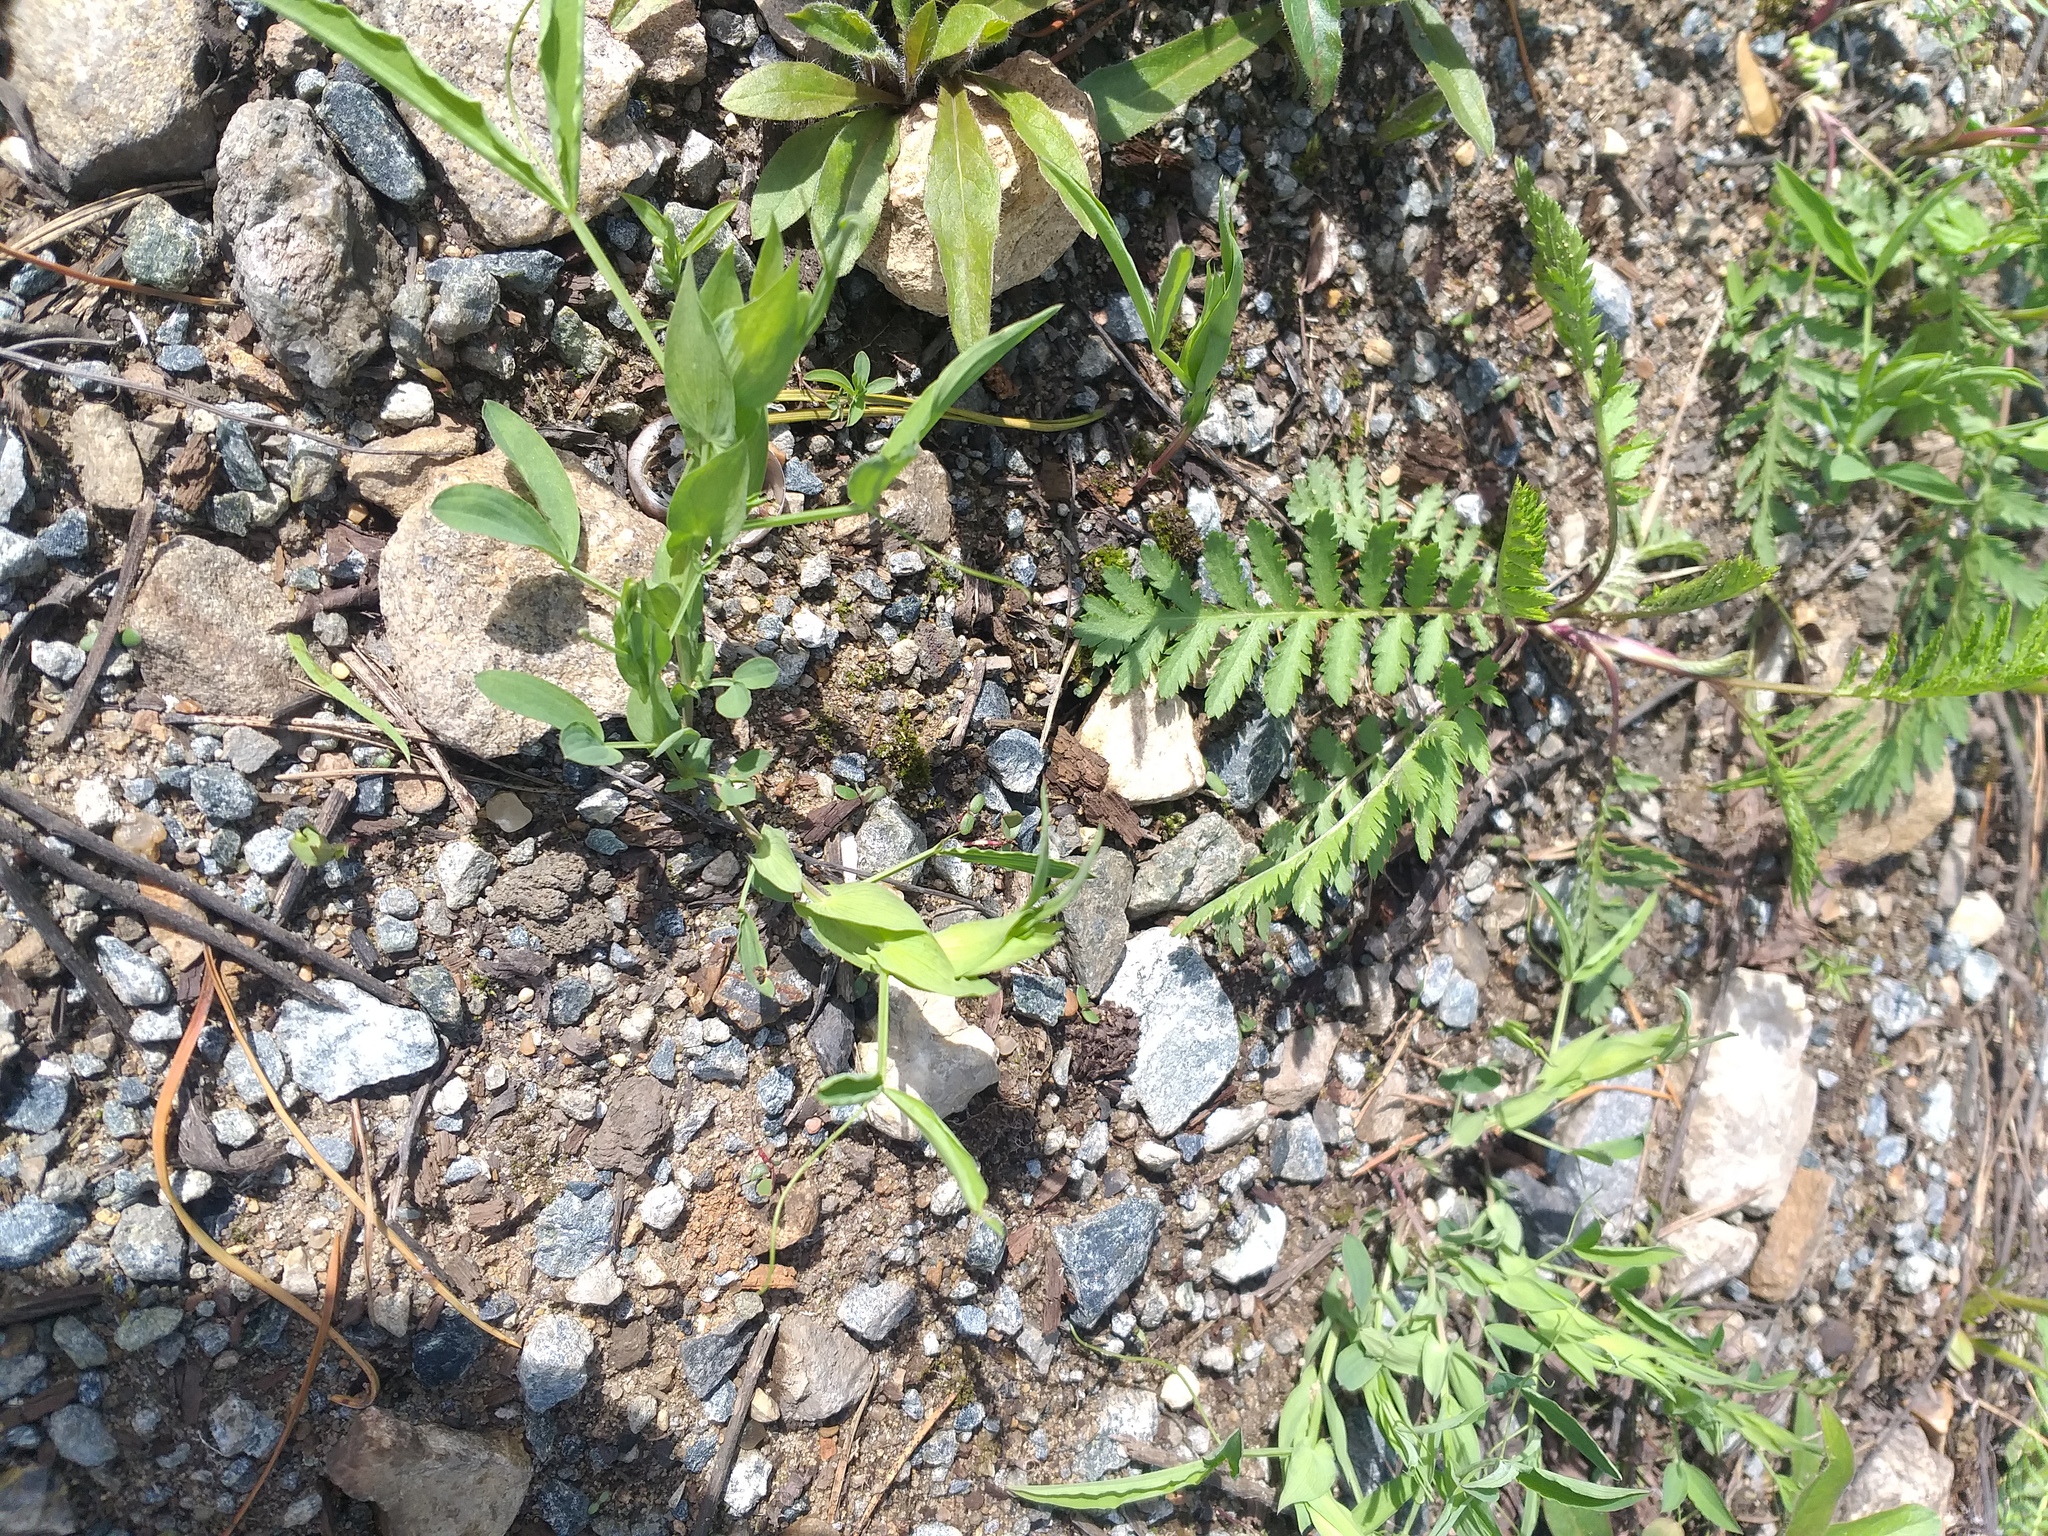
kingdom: Plantae
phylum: Tracheophyta
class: Magnoliopsida
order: Fabales
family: Fabaceae
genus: Lathyrus
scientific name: Lathyrus pratensis
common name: Meadow vetchling
